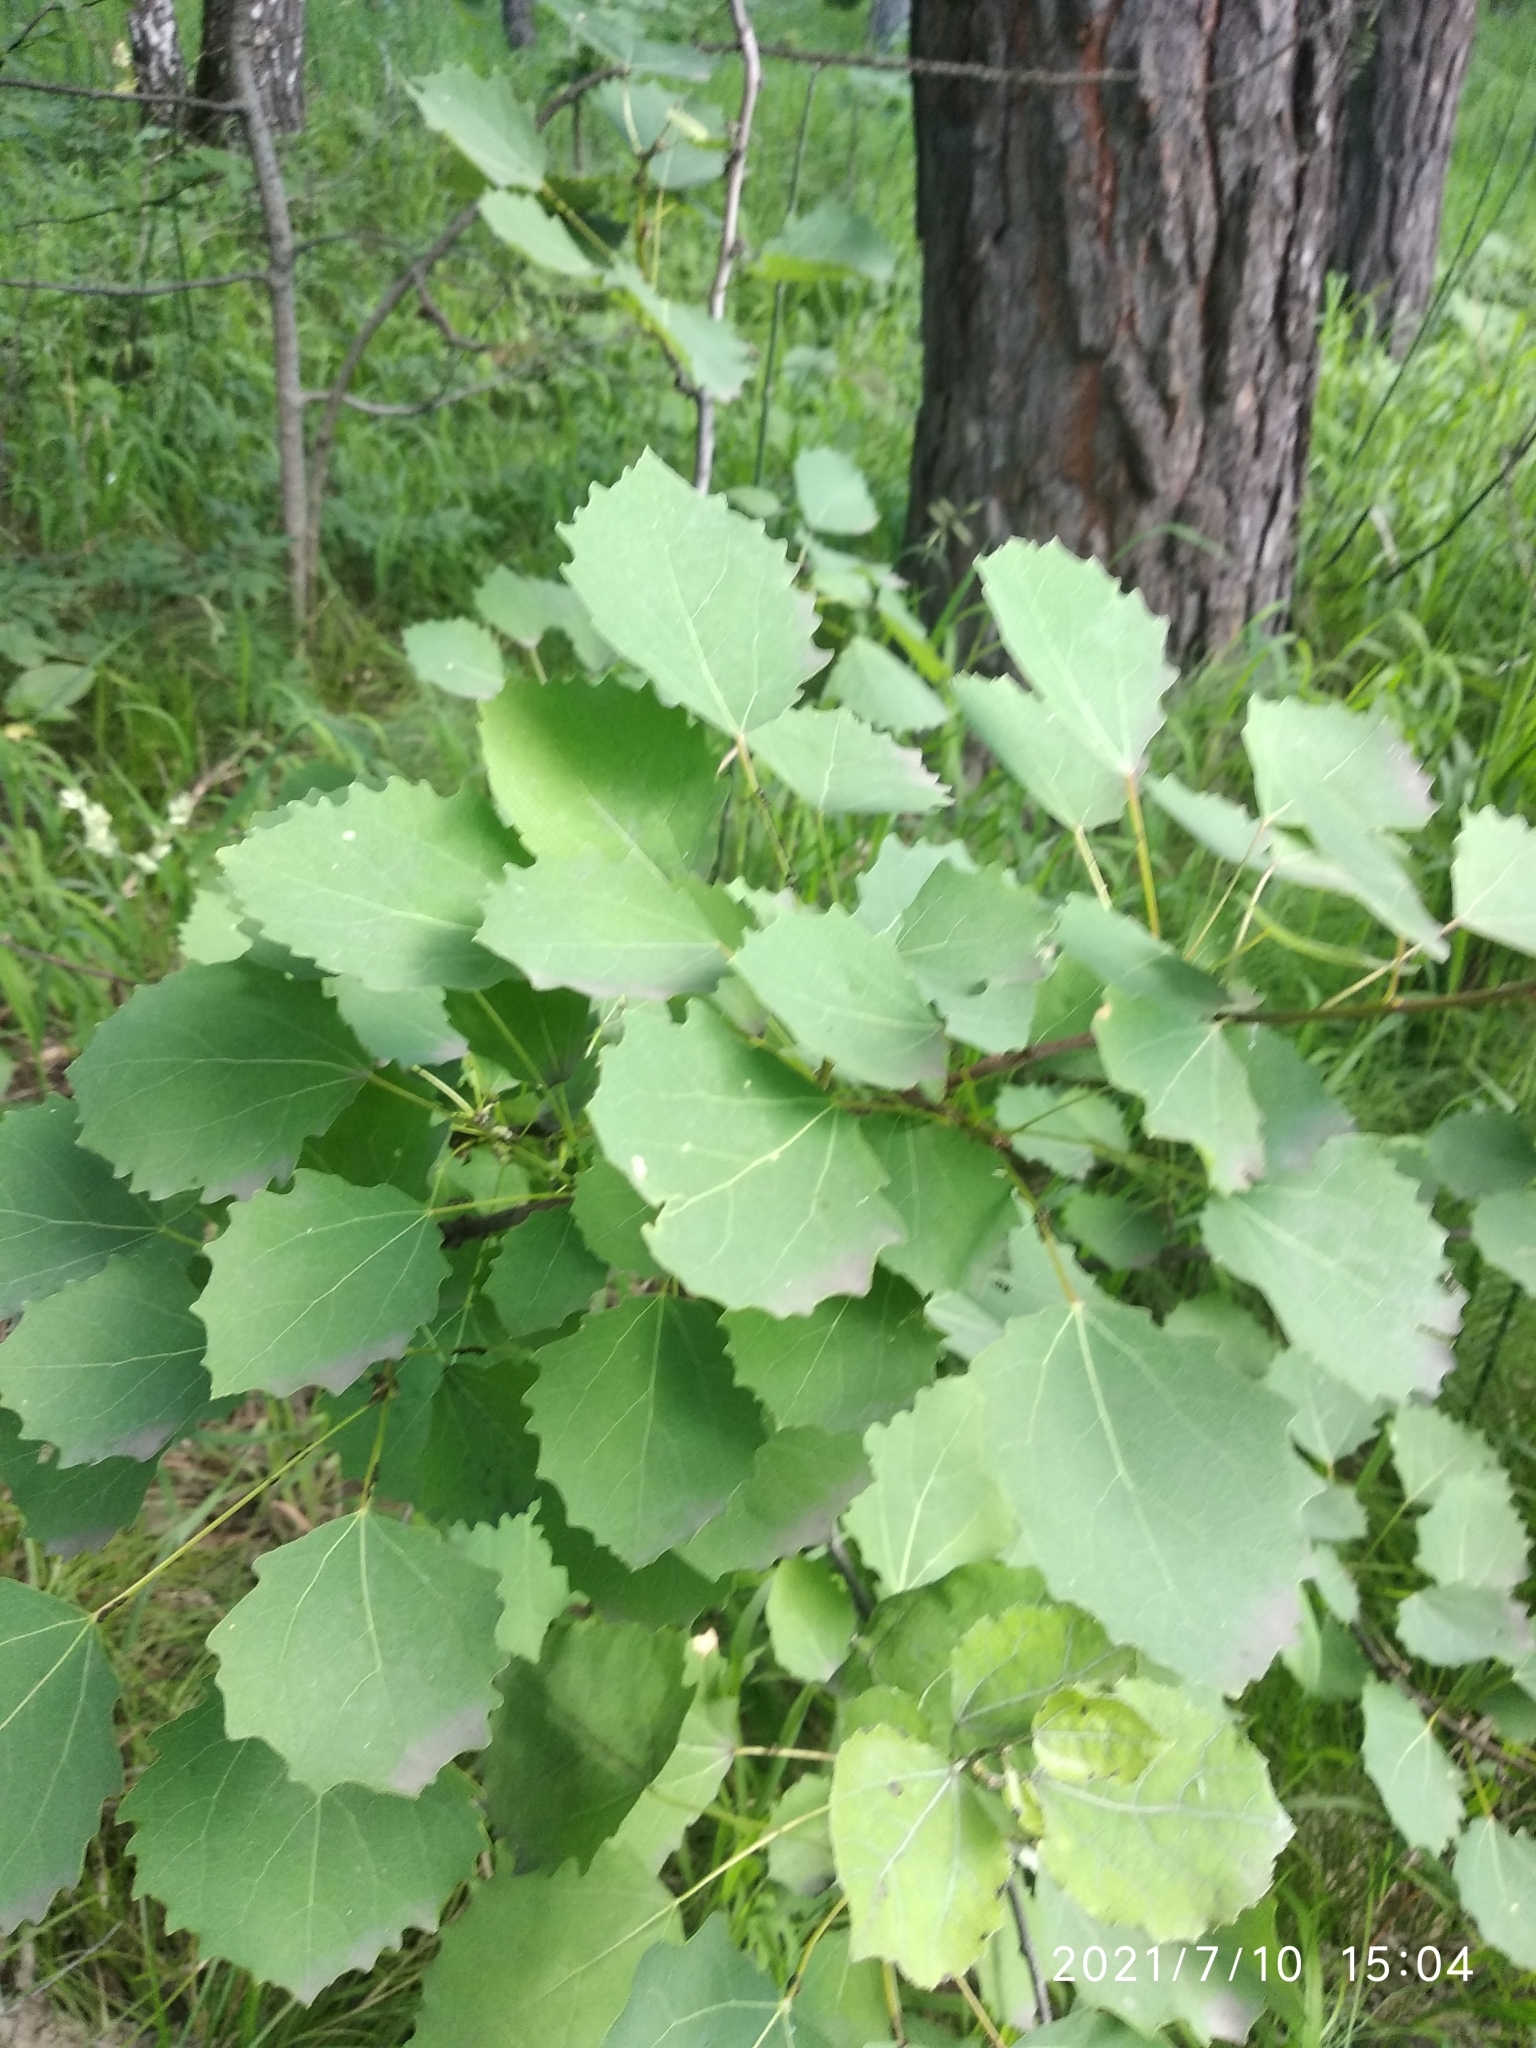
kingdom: Plantae
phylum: Tracheophyta
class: Magnoliopsida
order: Malpighiales
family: Salicaceae
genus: Populus
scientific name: Populus tremula
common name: European aspen
